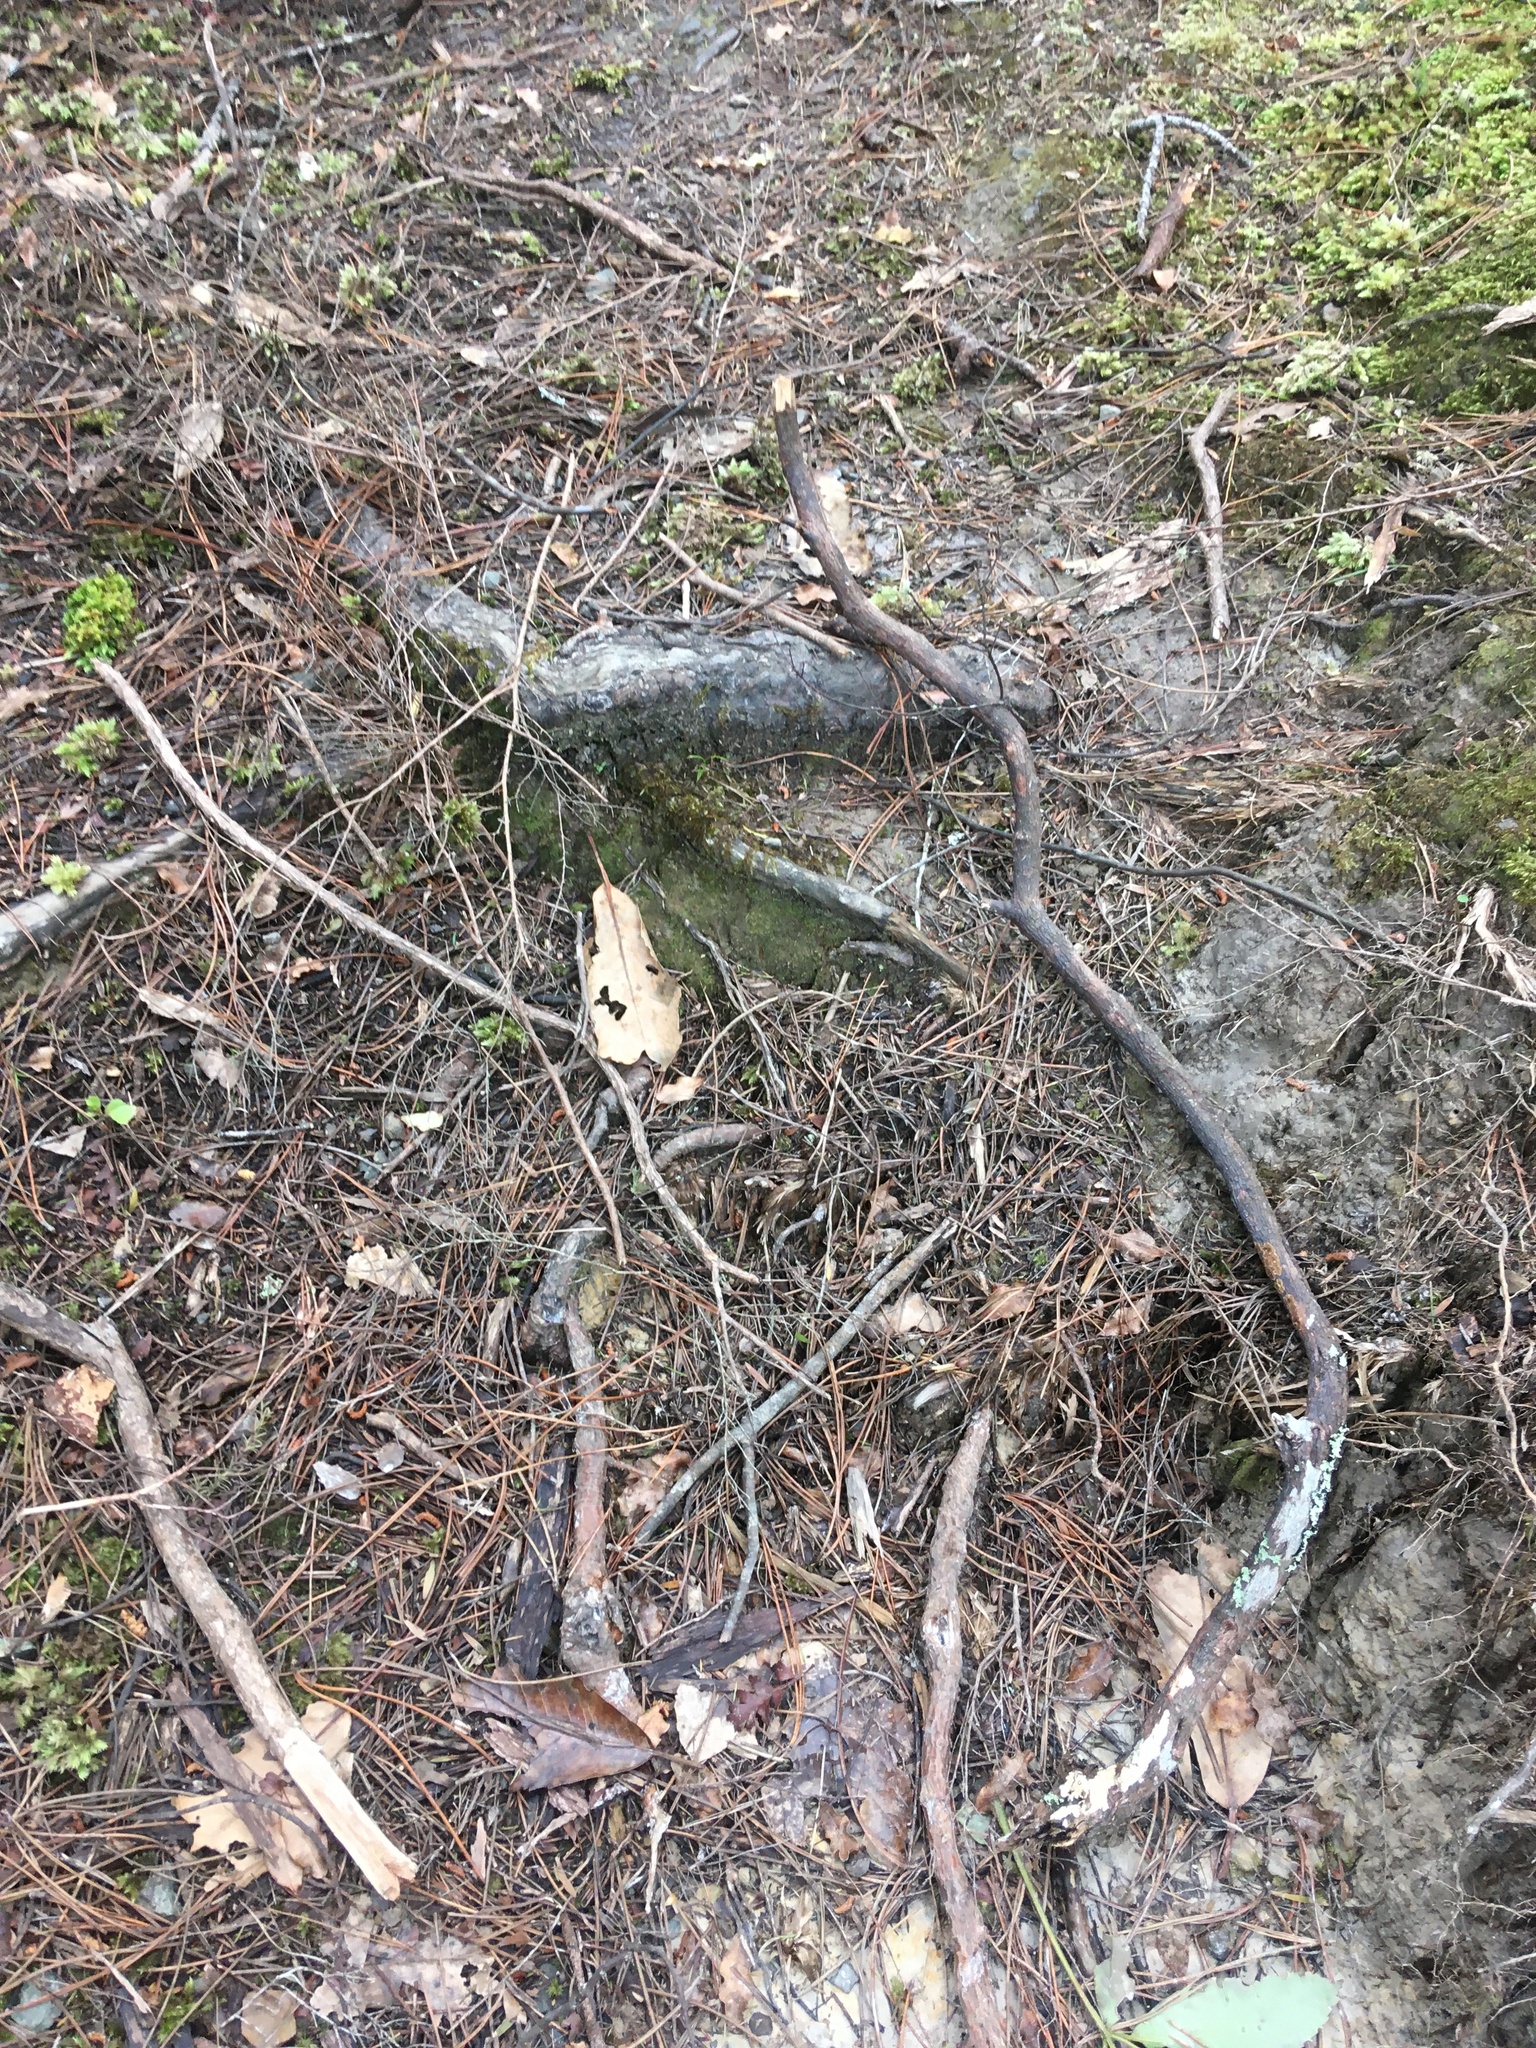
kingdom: Plantae
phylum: Bryophyta
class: Bryopsida
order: Dicranales
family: Leucobryaceae
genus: Leucobryum
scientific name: Leucobryum javense
